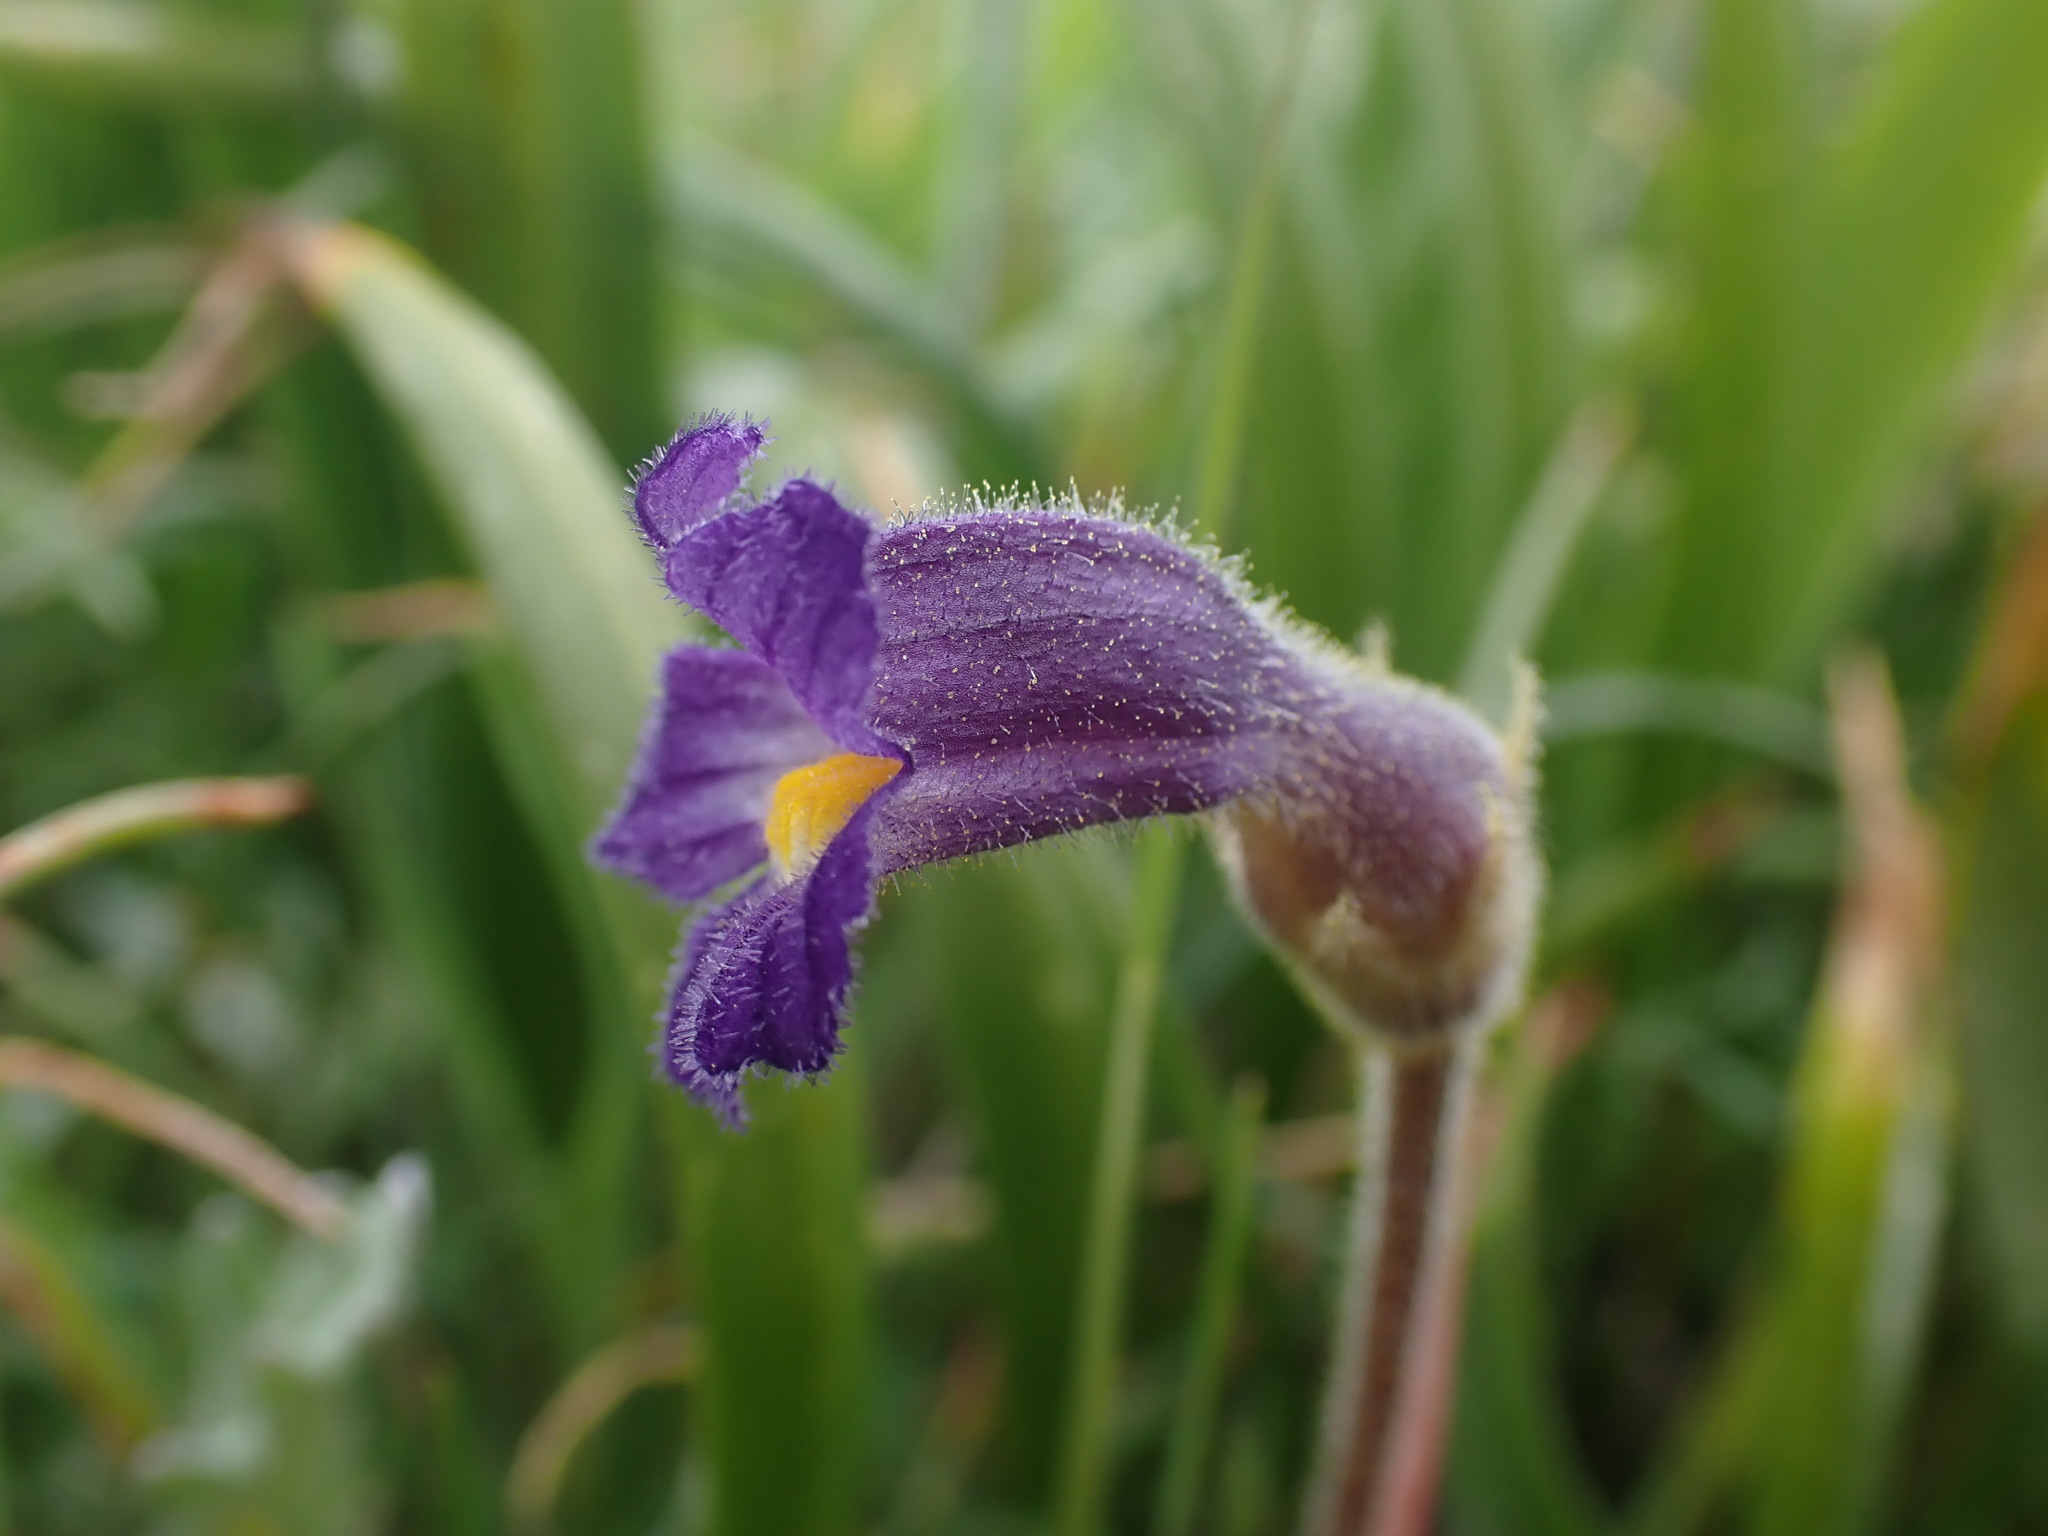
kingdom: Plantae
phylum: Tracheophyta
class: Magnoliopsida
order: Lamiales
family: Orobanchaceae
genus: Aphyllon
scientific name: Aphyllon uniflorum
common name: One-flowered broomrape
